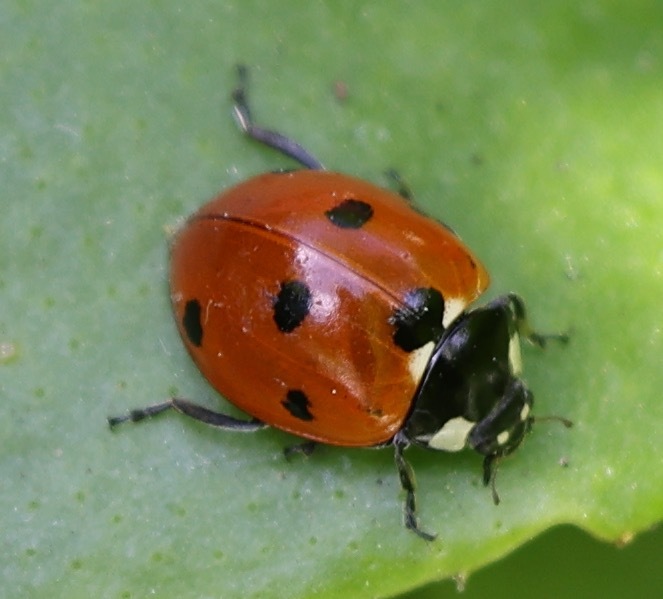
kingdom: Animalia
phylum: Arthropoda
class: Insecta
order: Coleoptera
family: Coccinellidae
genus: Coccinella
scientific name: Coccinella septempunctata
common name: Sevenspotted lady beetle
